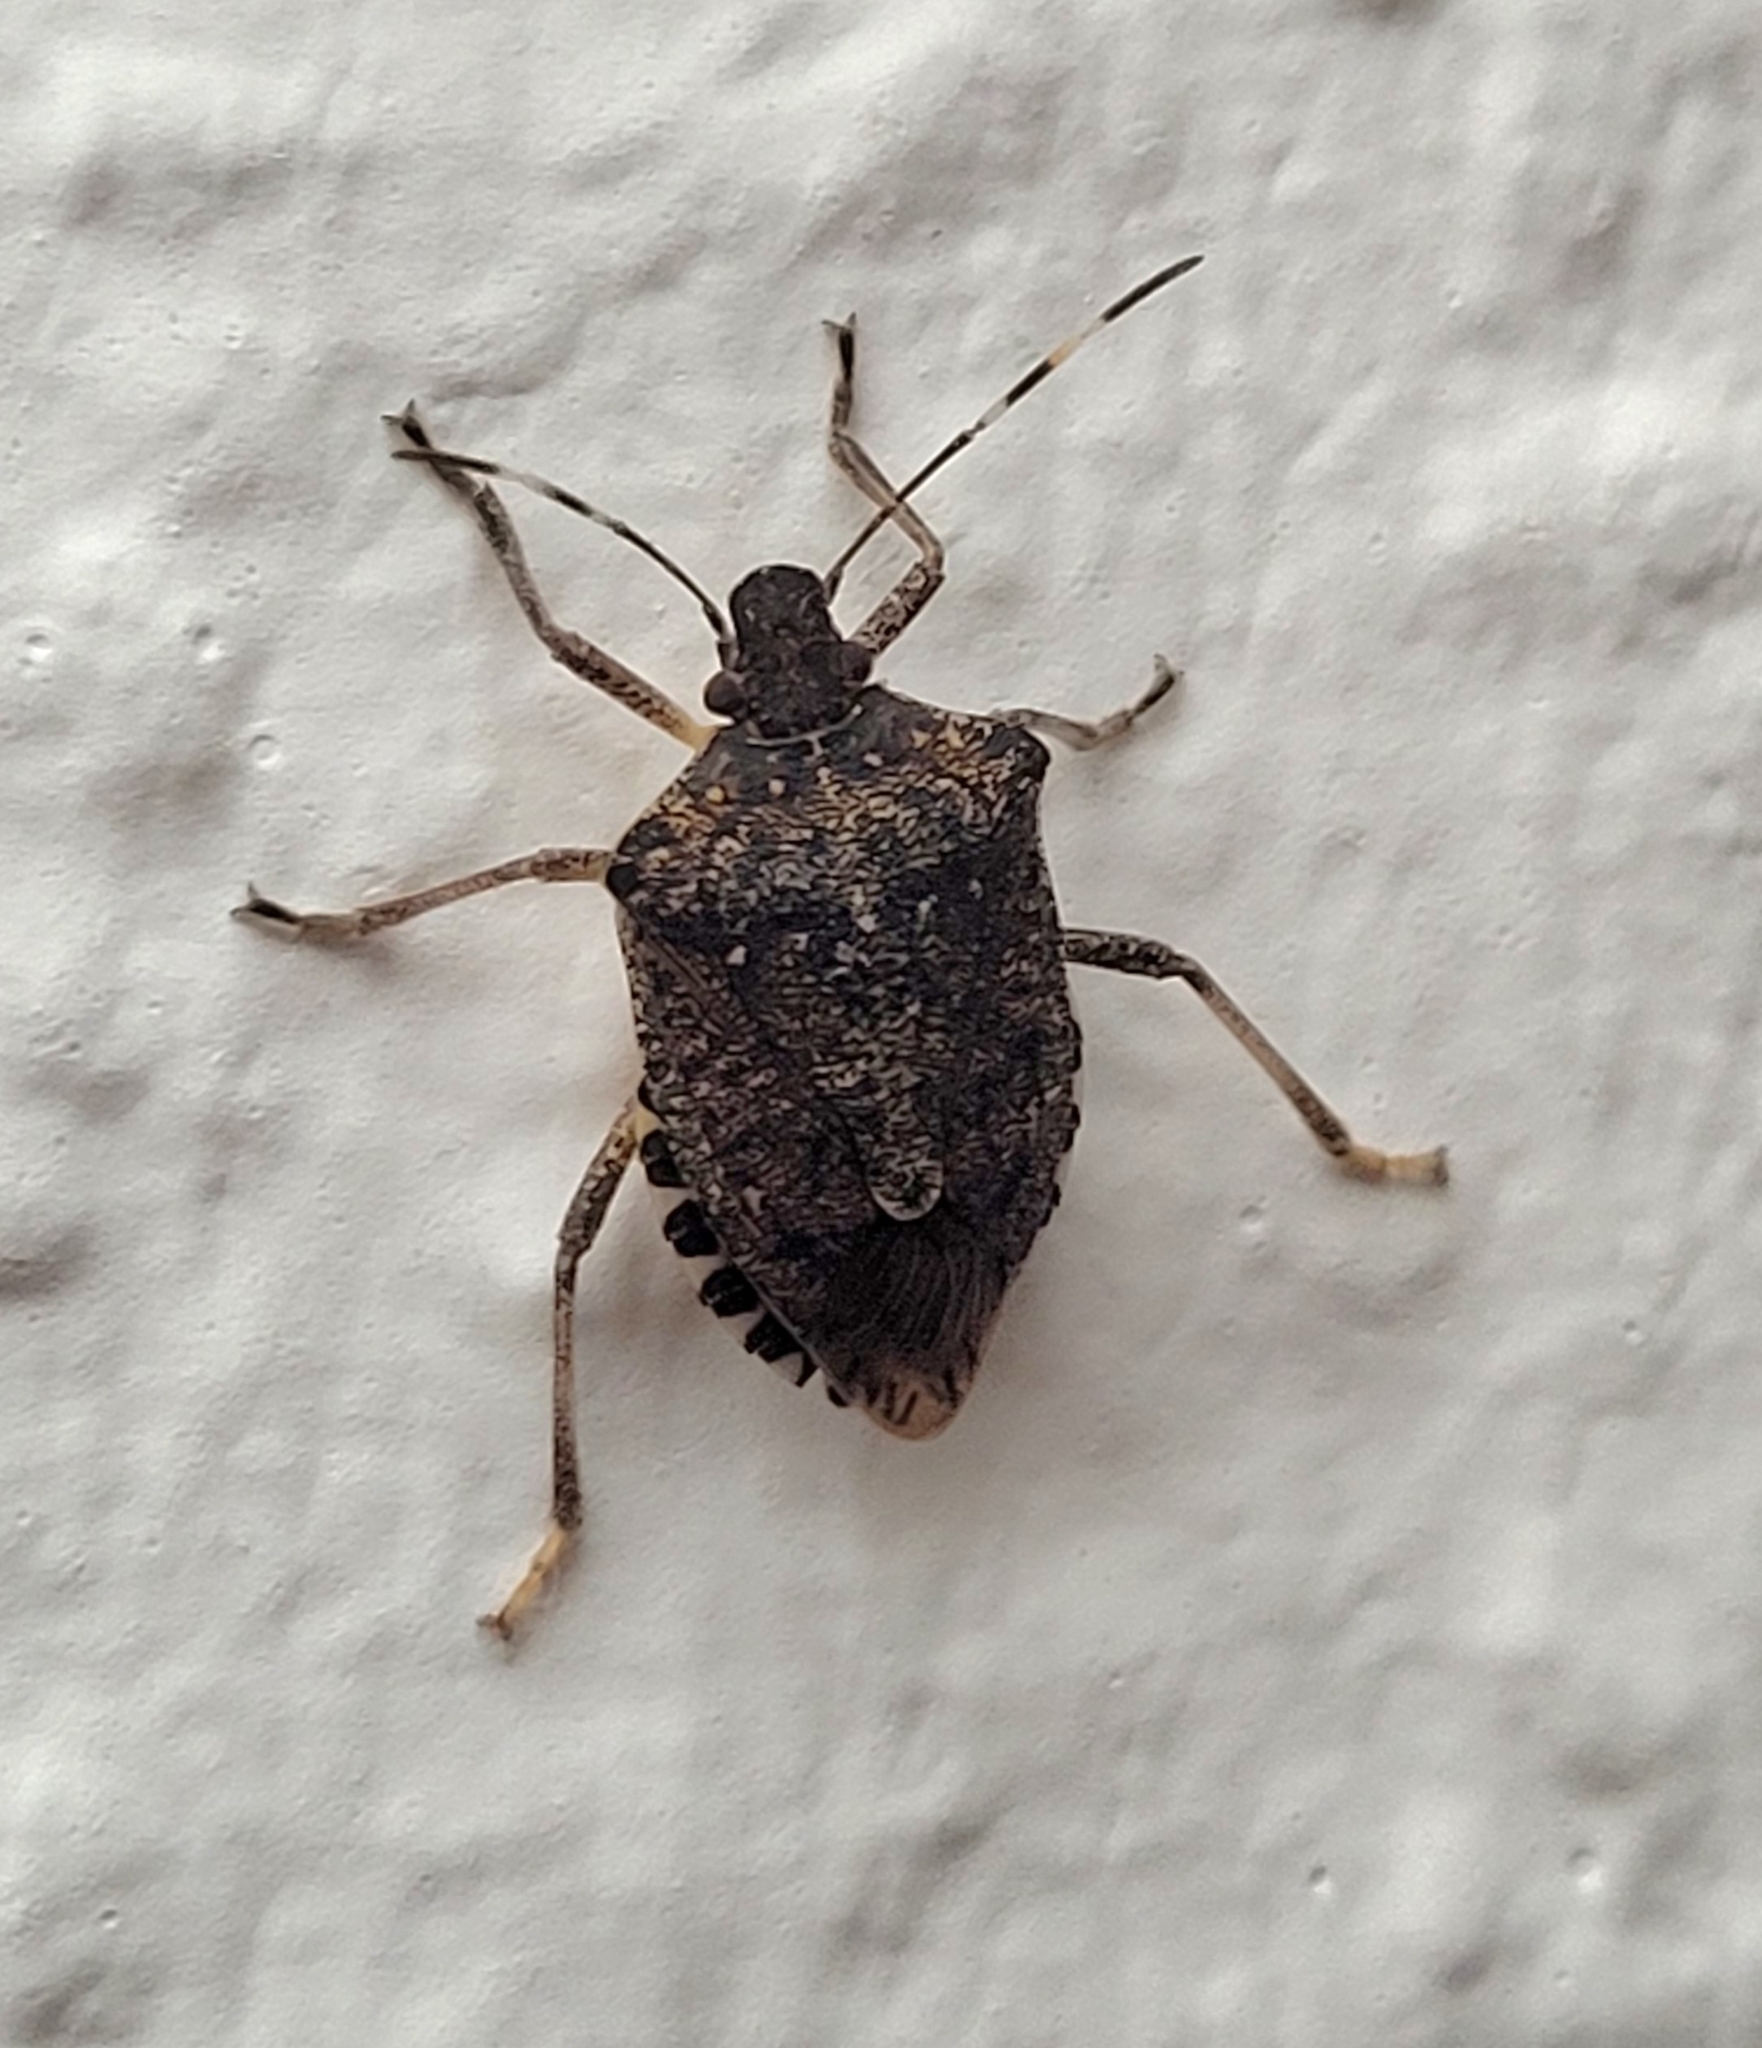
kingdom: Animalia
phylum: Arthropoda
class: Insecta
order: Hemiptera
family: Pentatomidae
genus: Halyomorpha
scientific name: Halyomorpha halys
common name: Brown marmorated stink bug
